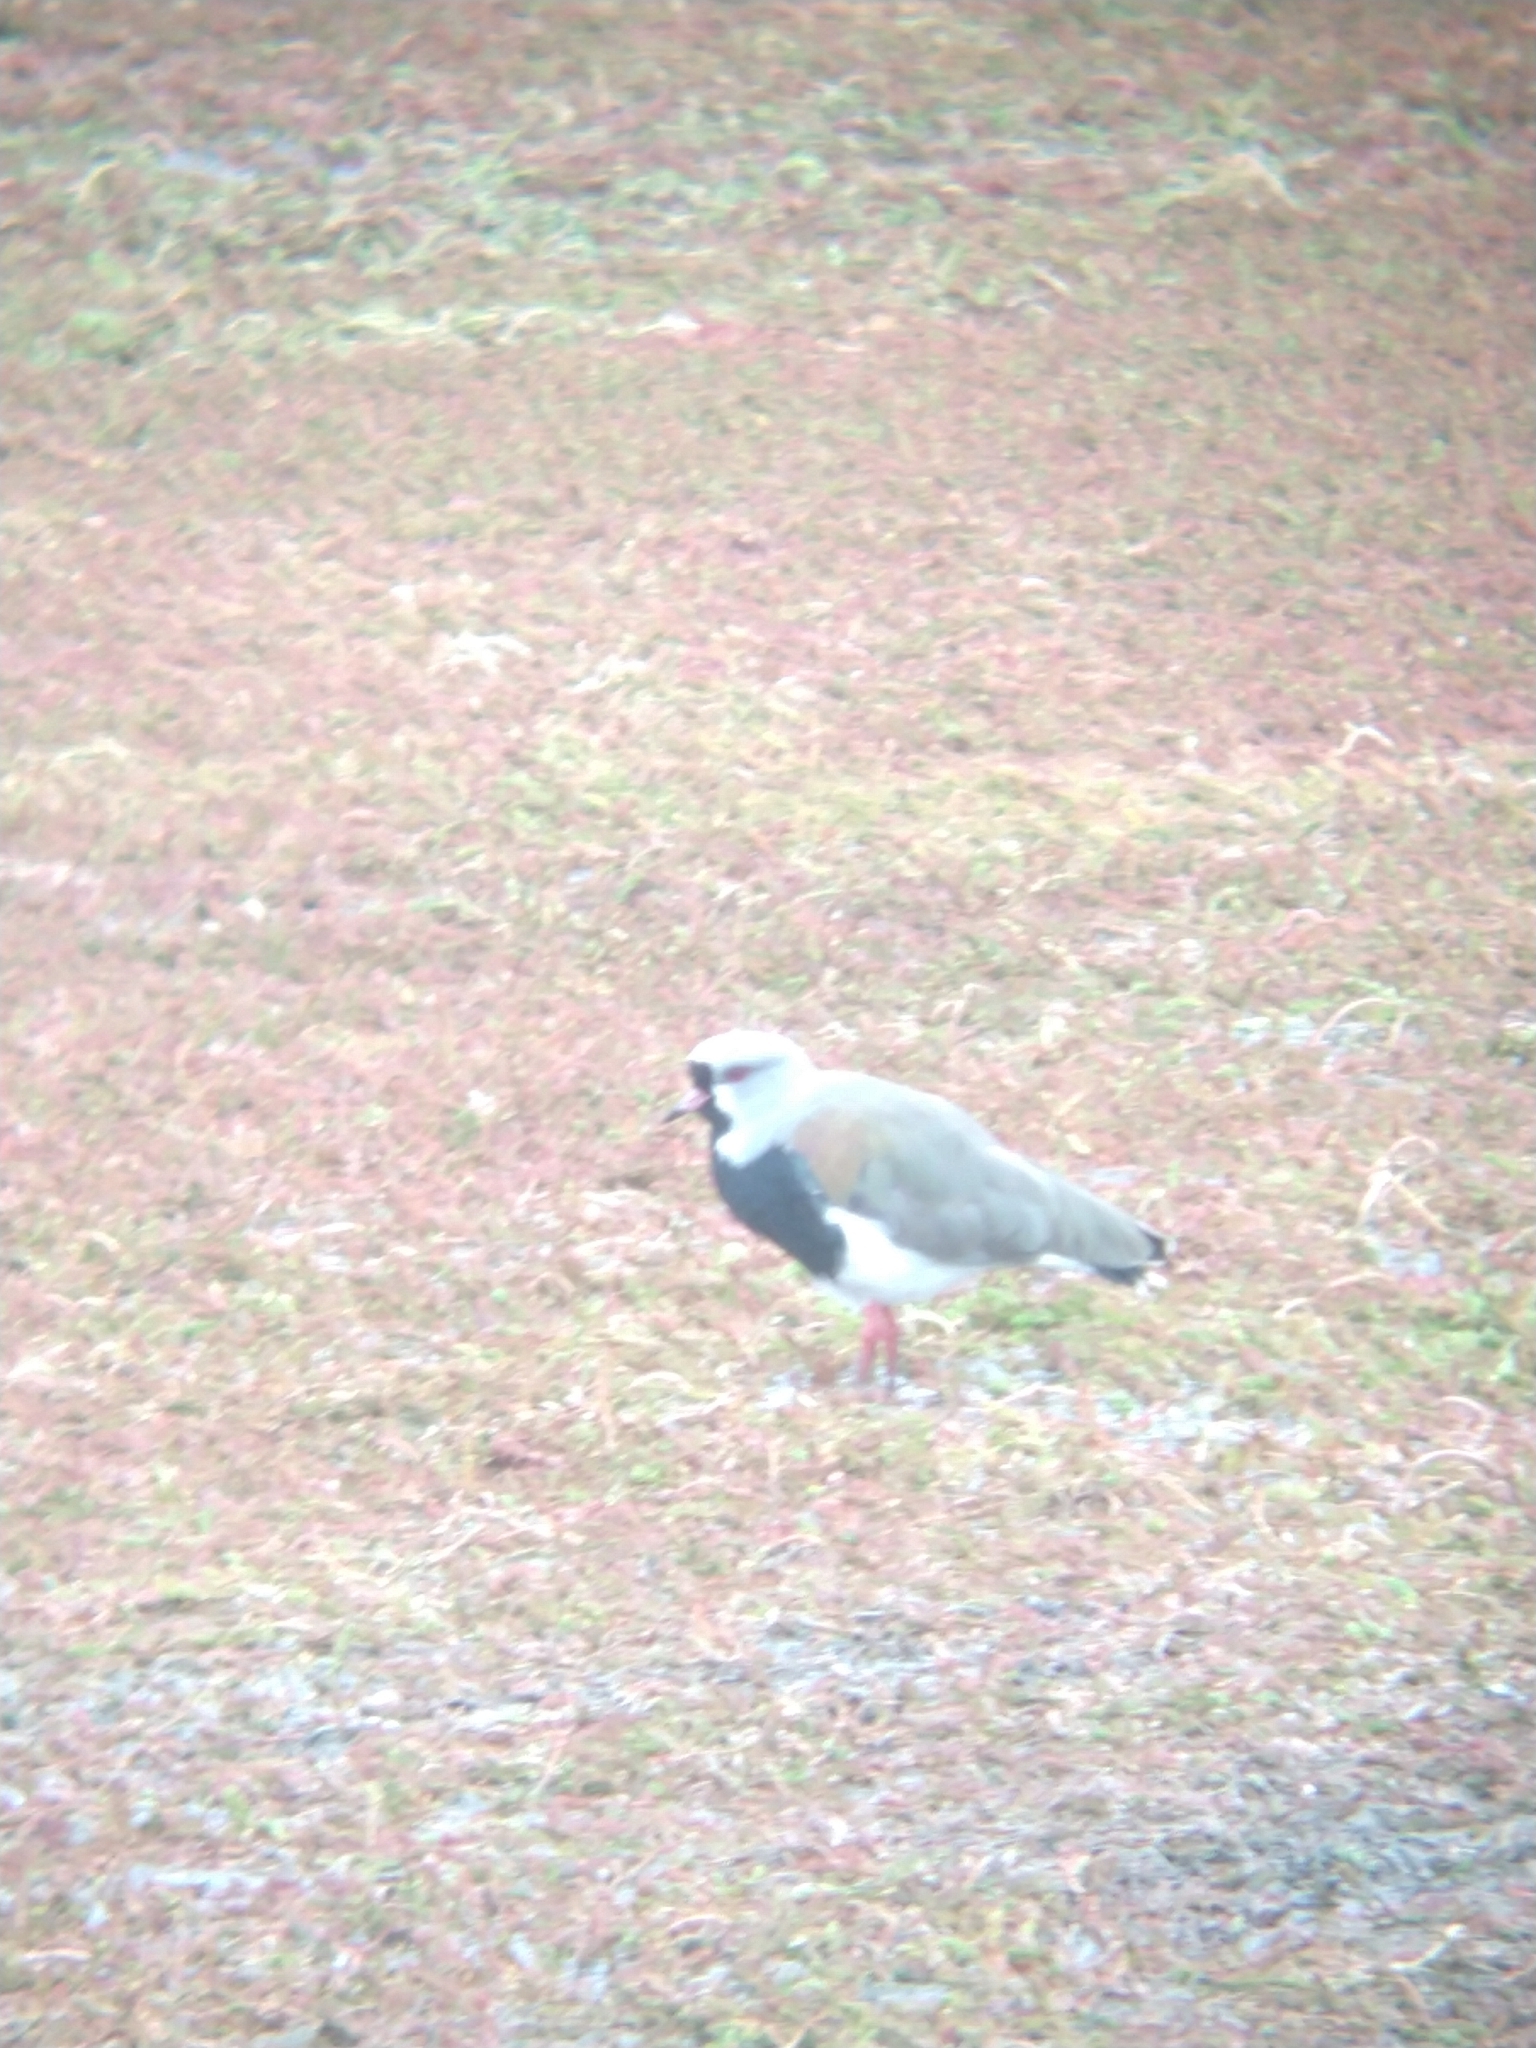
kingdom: Animalia
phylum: Chordata
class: Aves
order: Charadriiformes
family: Charadriidae
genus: Vanellus
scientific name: Vanellus chilensis
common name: Southern lapwing
